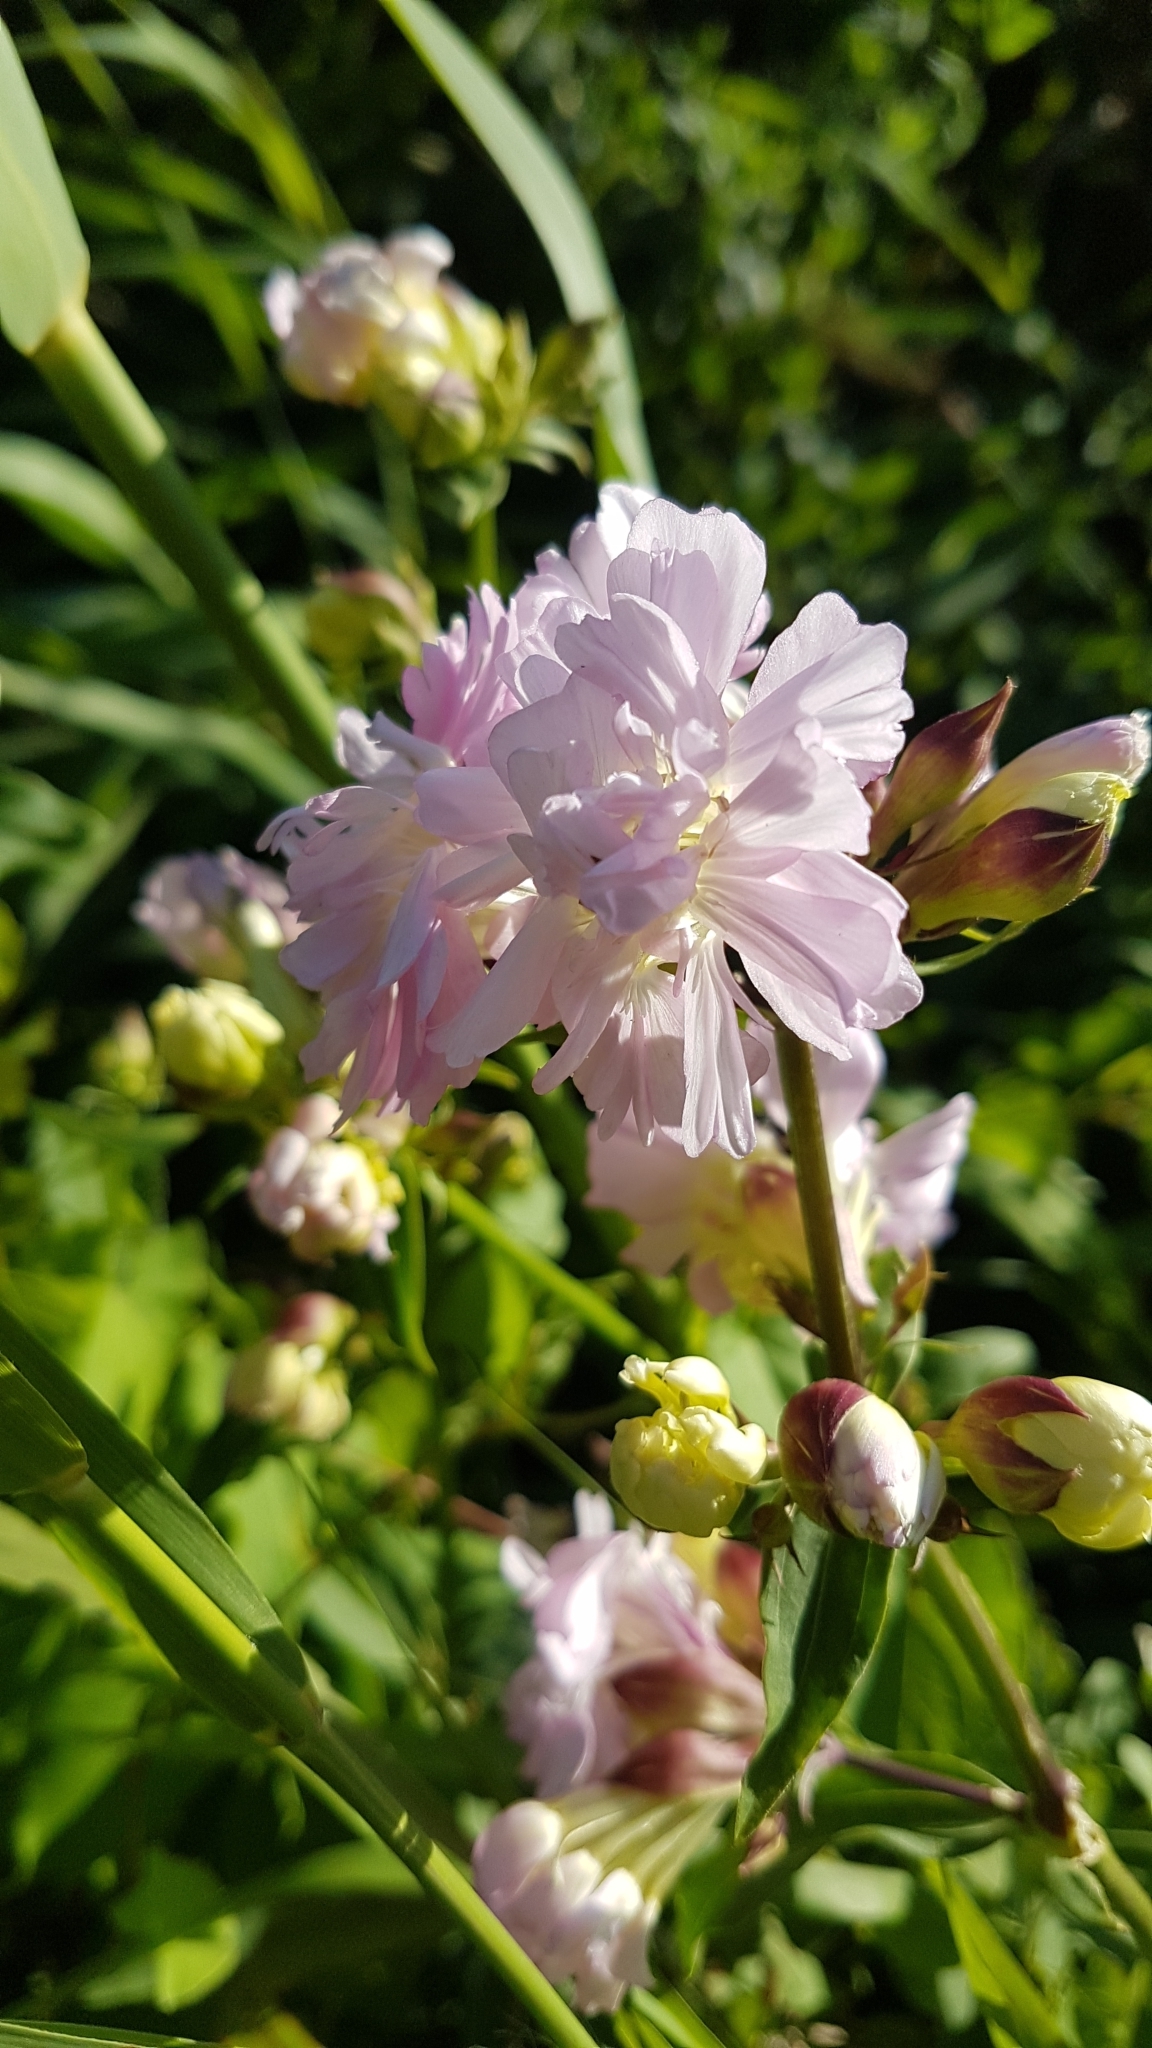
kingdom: Plantae
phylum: Tracheophyta
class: Magnoliopsida
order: Caryophyllales
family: Caryophyllaceae
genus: Saponaria
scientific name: Saponaria officinalis
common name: Soapwort
